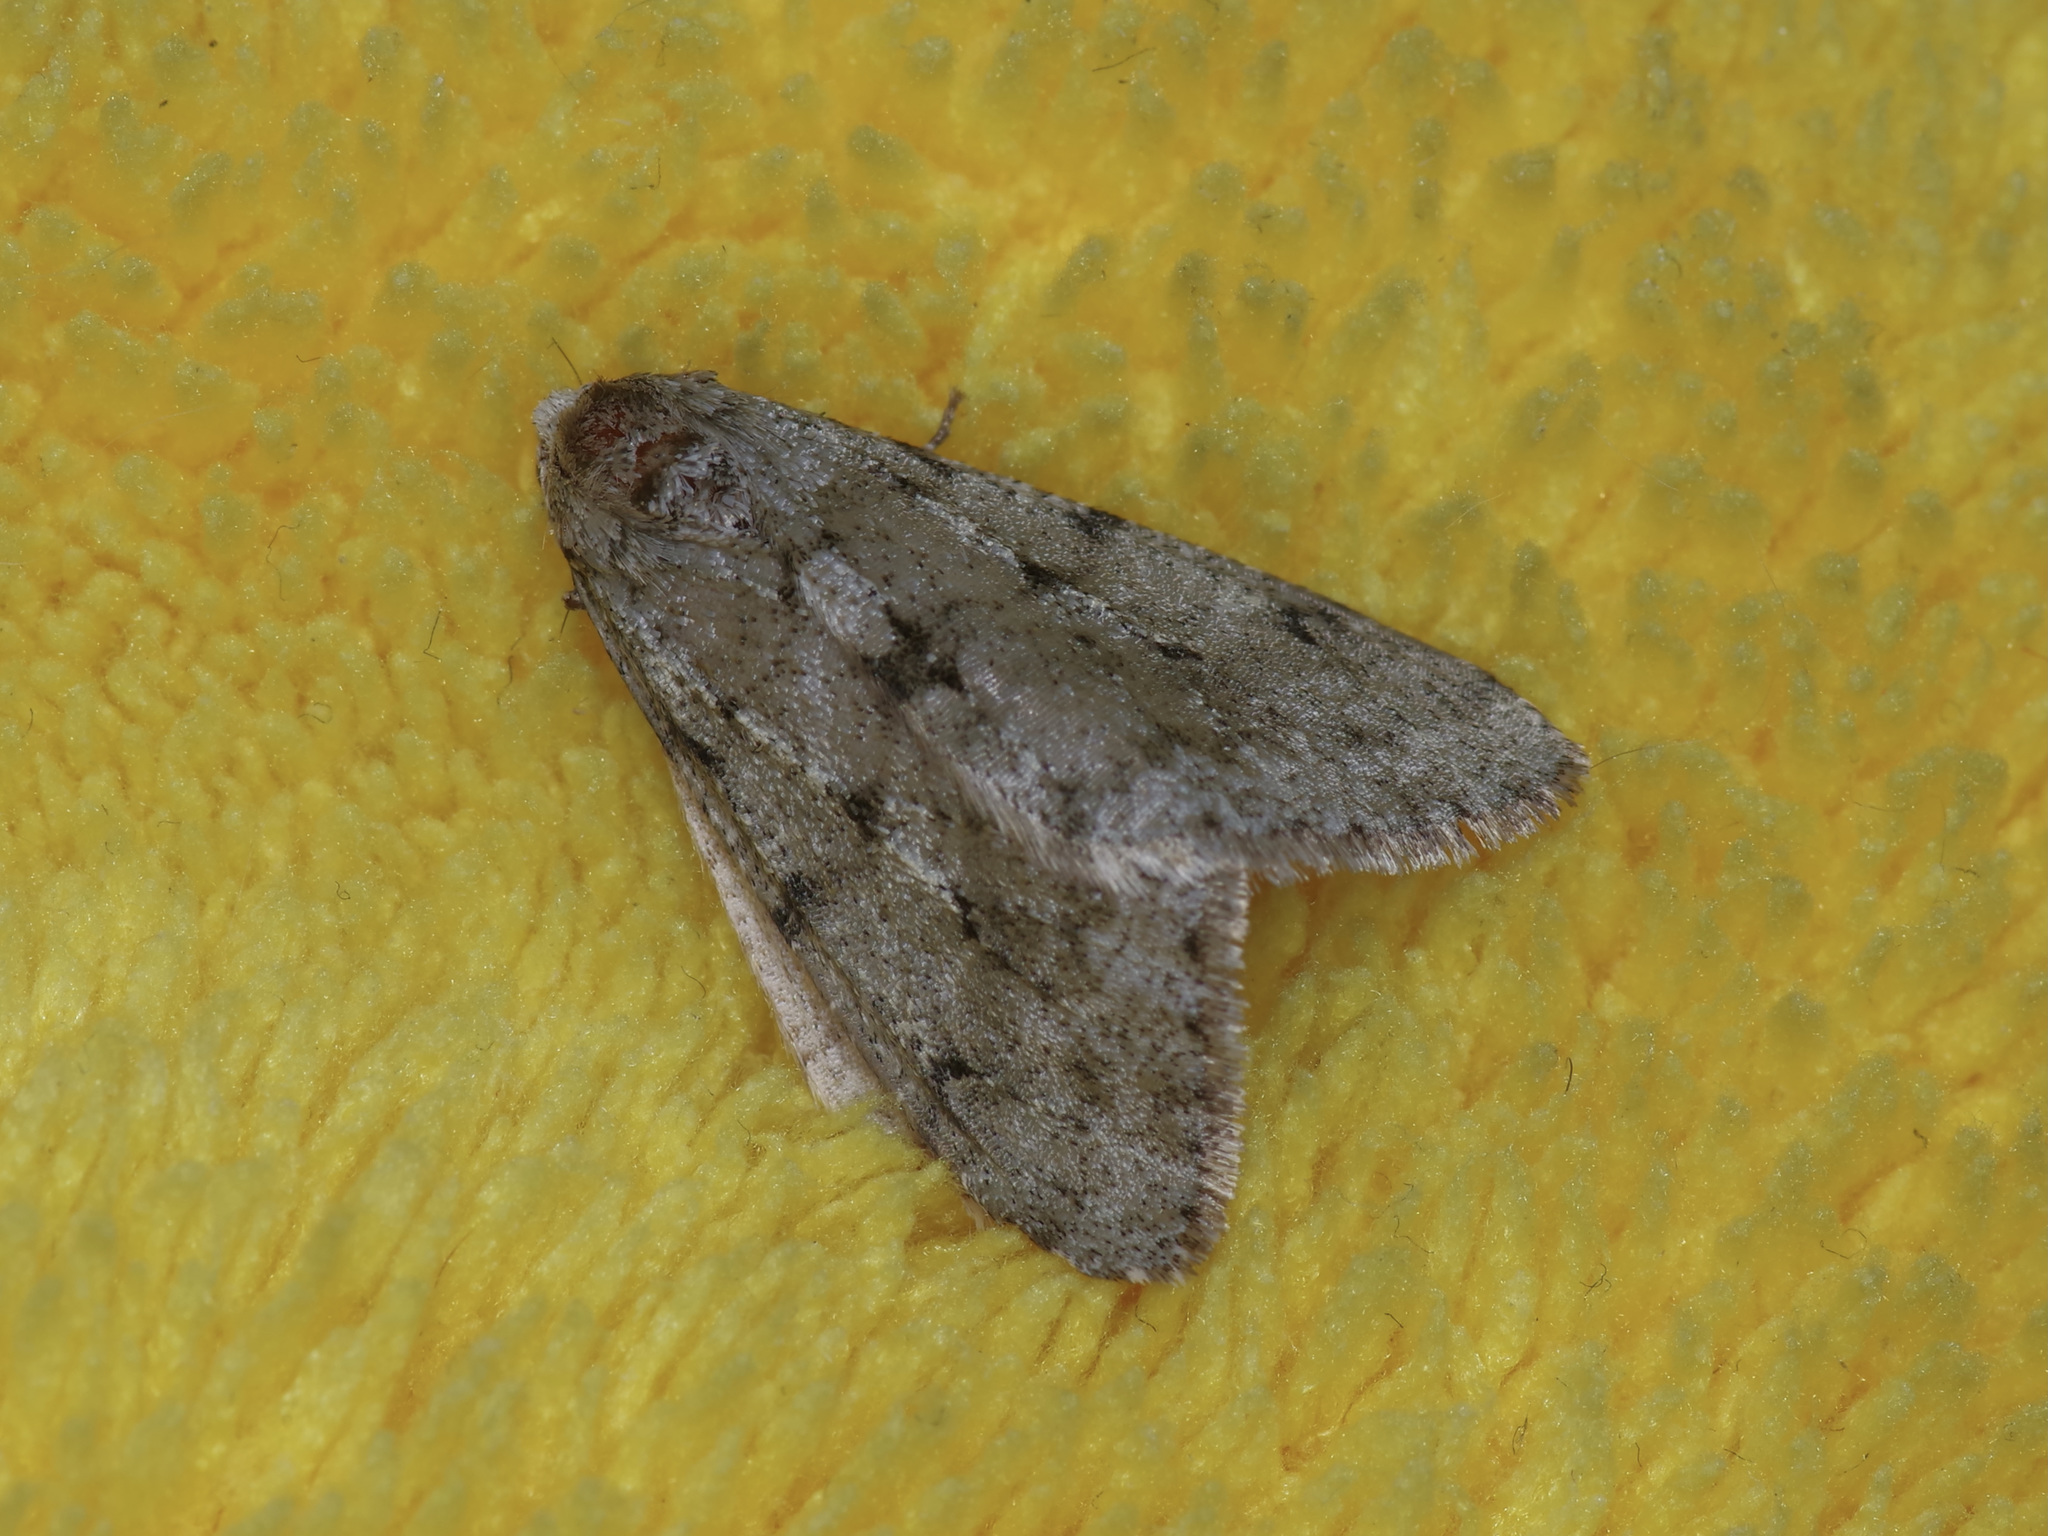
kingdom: Animalia
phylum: Arthropoda
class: Insecta
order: Lepidoptera
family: Geometridae
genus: Paleacrita
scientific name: Paleacrita vernata
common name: Spring cankerworm
